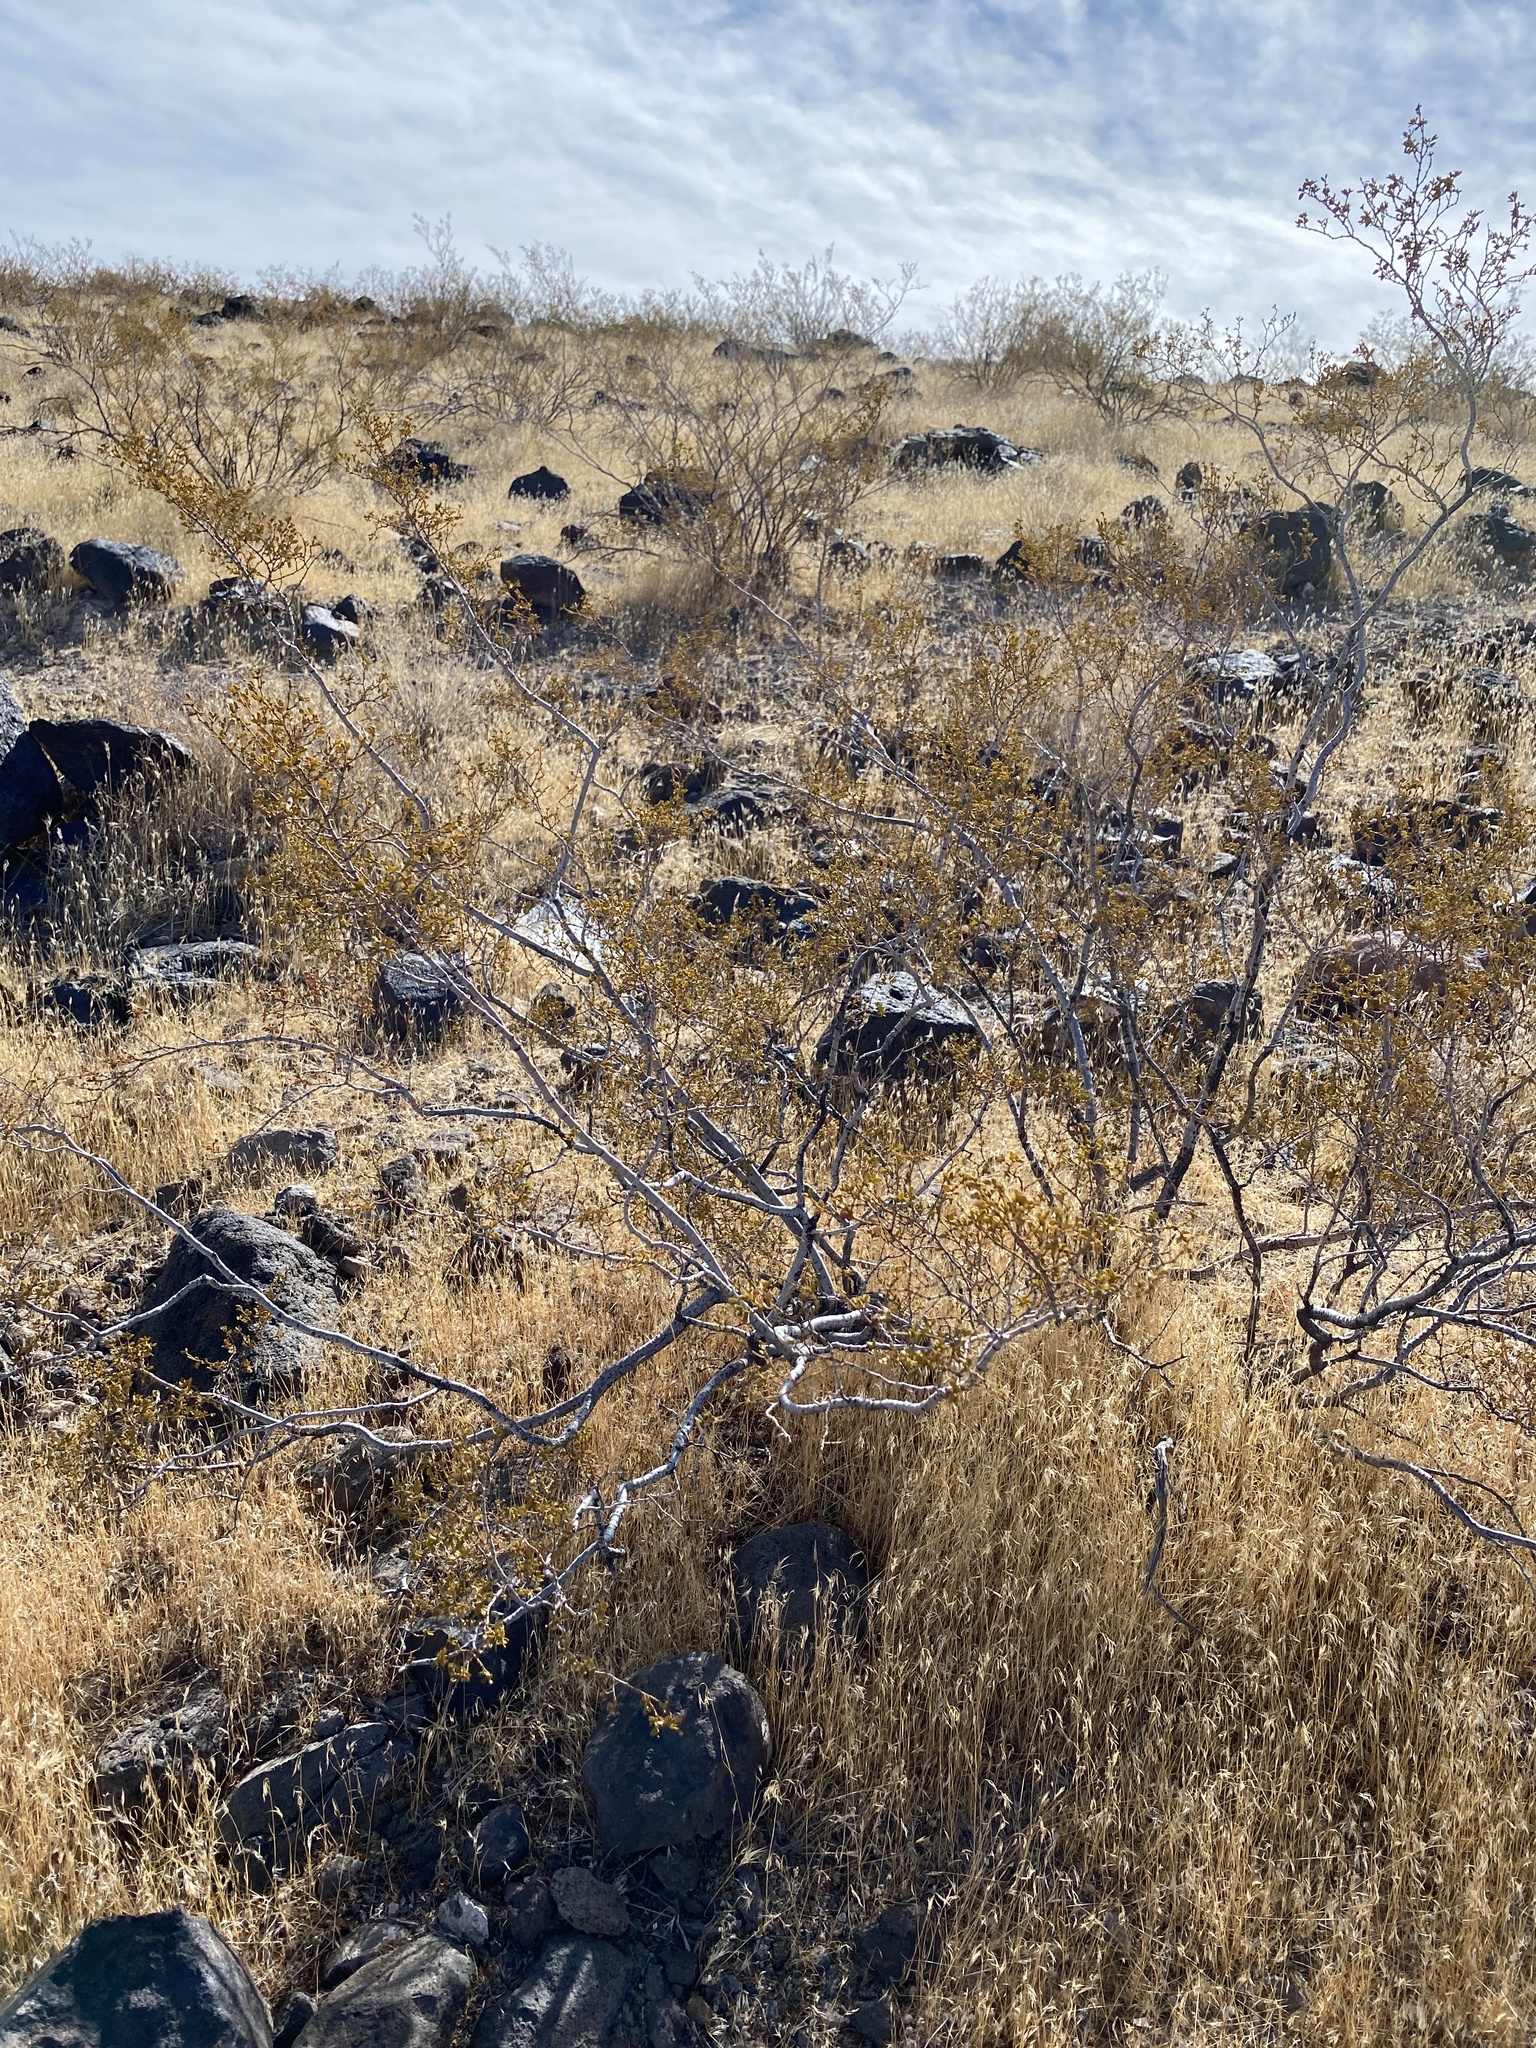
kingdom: Plantae
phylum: Tracheophyta
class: Magnoliopsida
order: Zygophyllales
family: Zygophyllaceae
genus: Larrea
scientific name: Larrea tridentata
